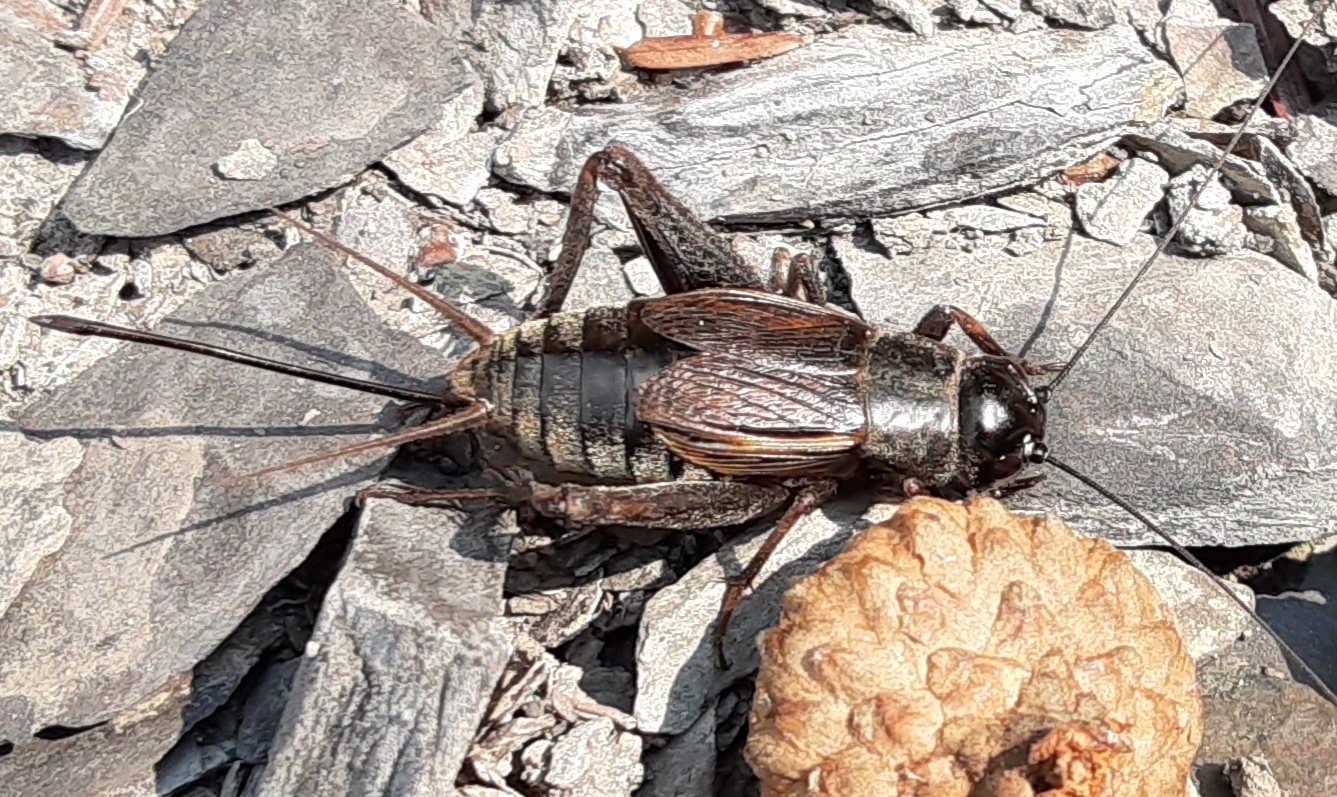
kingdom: Animalia
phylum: Arthropoda
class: Insecta
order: Orthoptera
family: Gryllidae
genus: Gryllus
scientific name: Gryllus pennsylvanicus
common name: Fall field cricket
